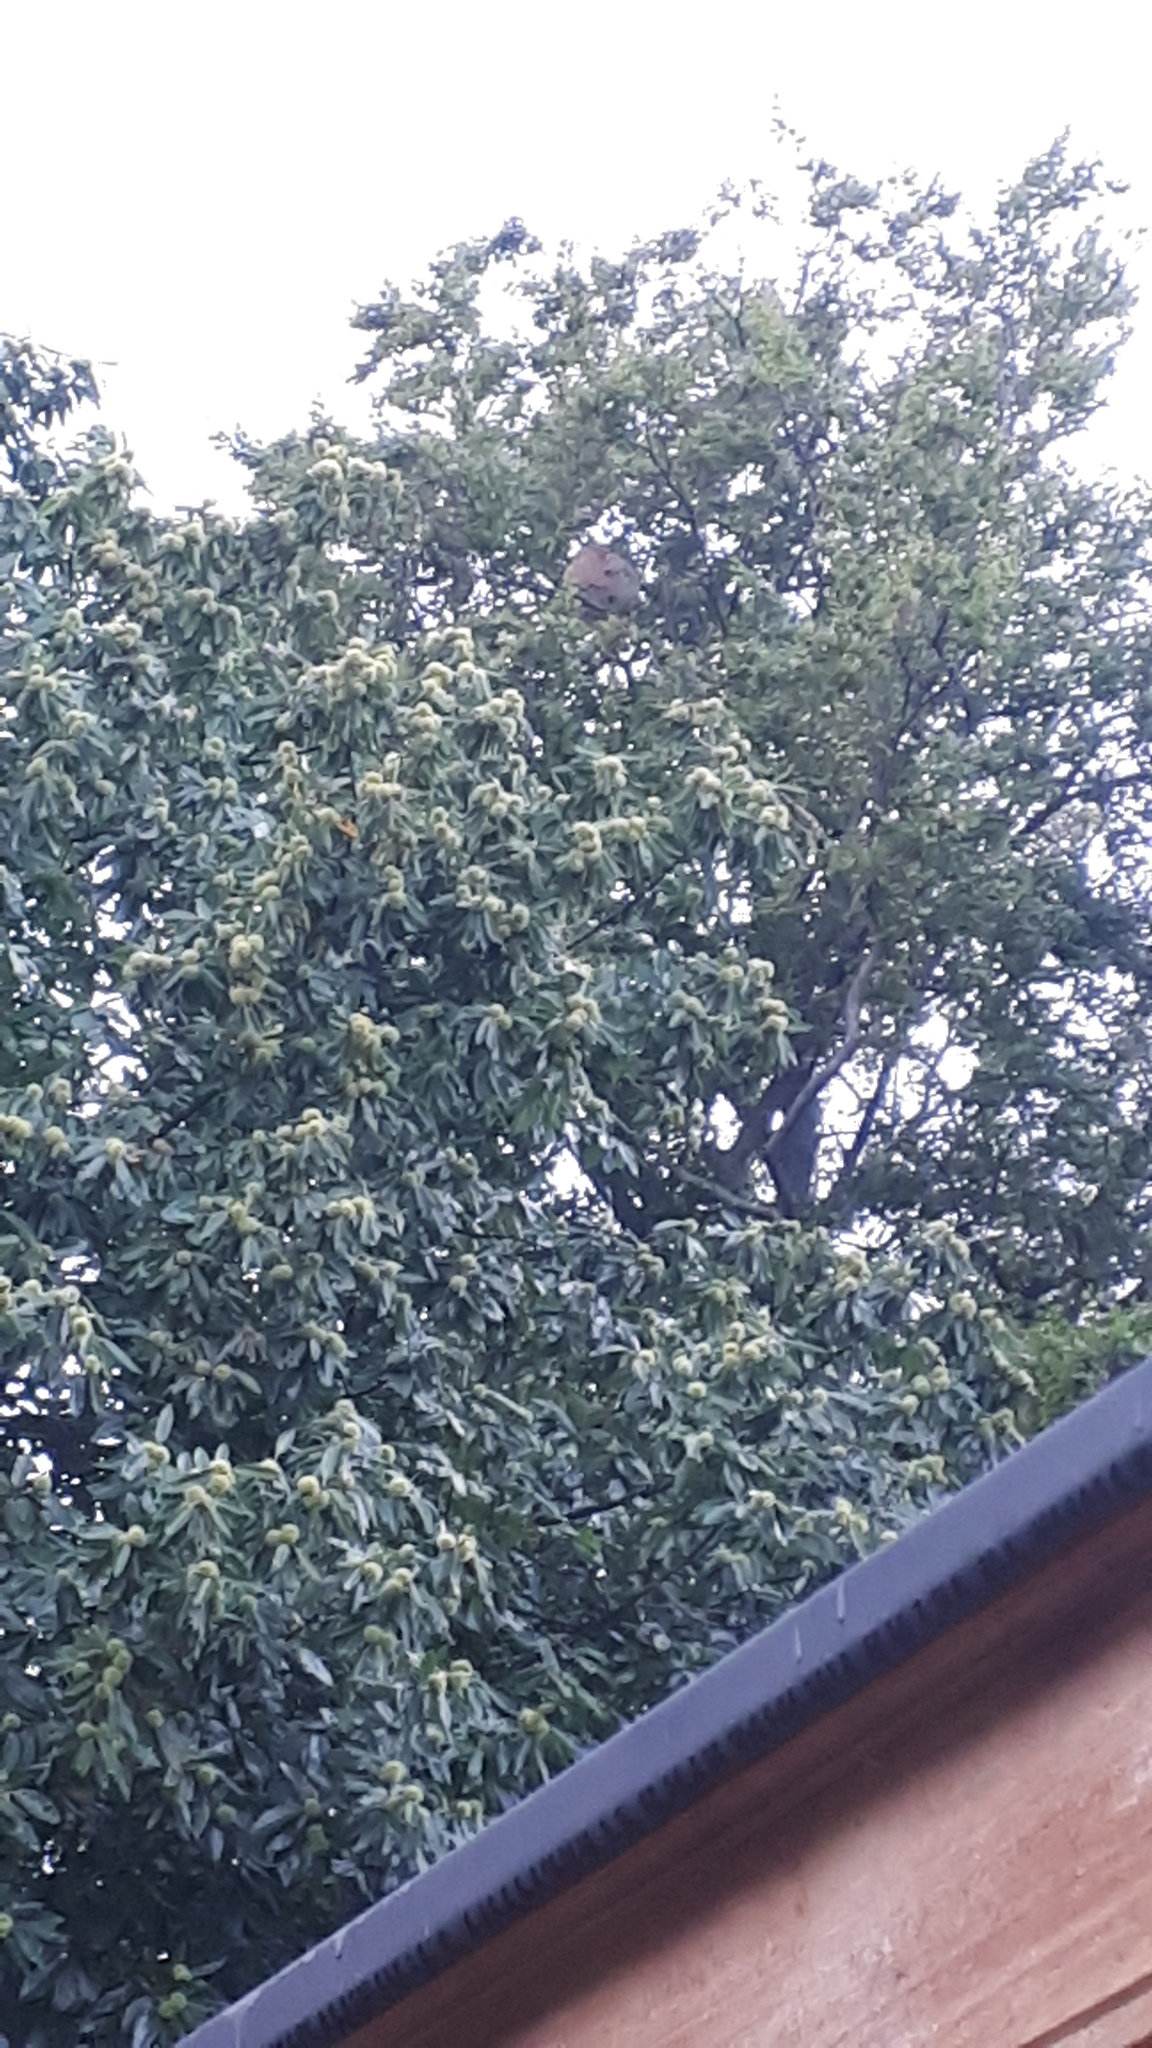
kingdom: Animalia
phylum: Arthropoda
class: Insecta
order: Hymenoptera
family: Vespidae
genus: Vespa
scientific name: Vespa velutina
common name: Asian hornet
